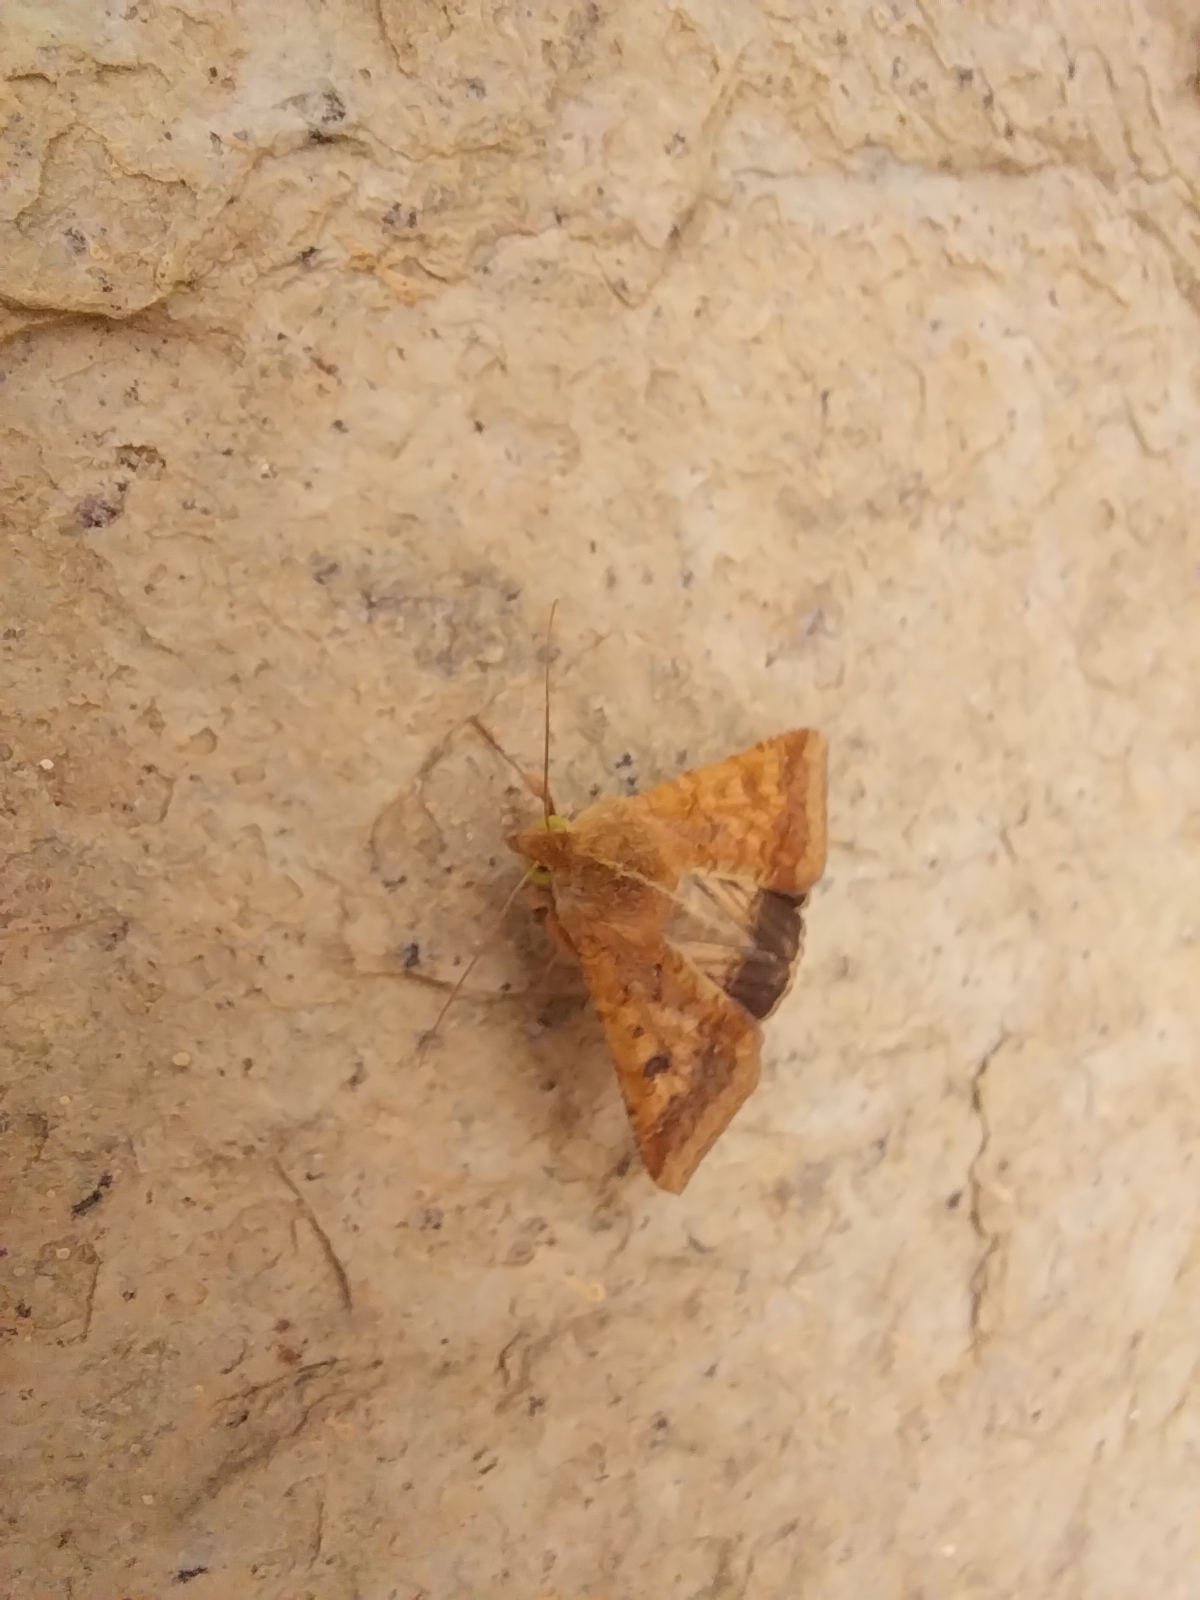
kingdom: Animalia
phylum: Arthropoda
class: Insecta
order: Lepidoptera
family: Noctuidae
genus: Helicoverpa
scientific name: Helicoverpa armigera
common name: Cotton bollworm
